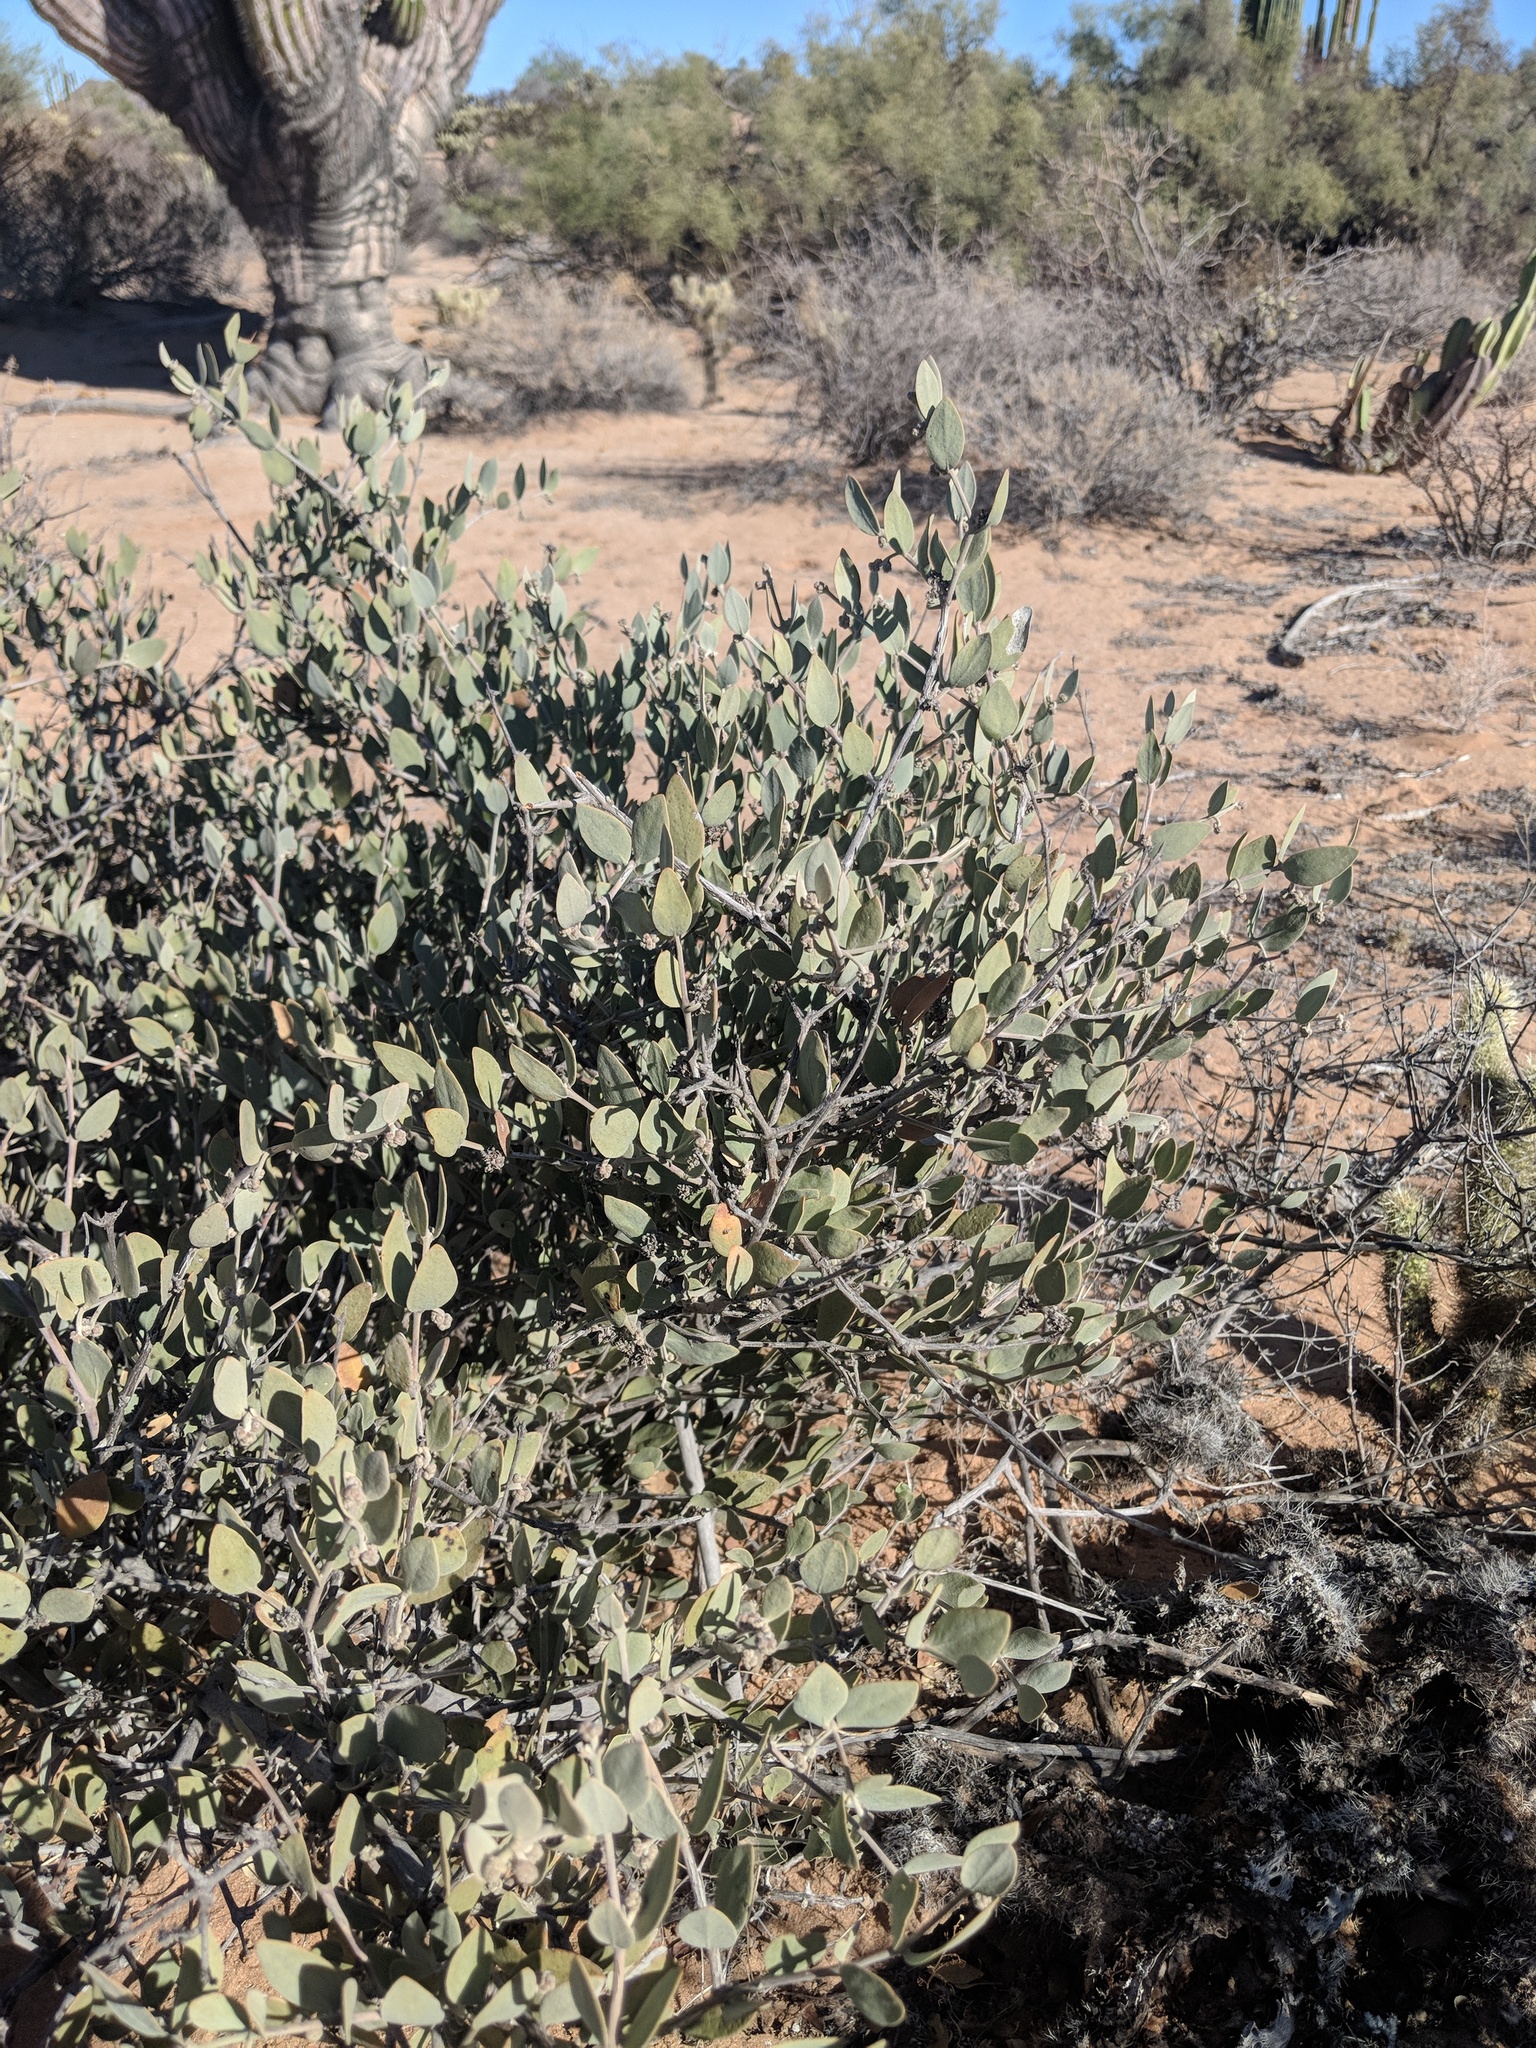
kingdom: Plantae
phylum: Tracheophyta
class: Magnoliopsida
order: Caryophyllales
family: Simmondsiaceae
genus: Simmondsia
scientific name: Simmondsia chinensis
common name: Jojoba
